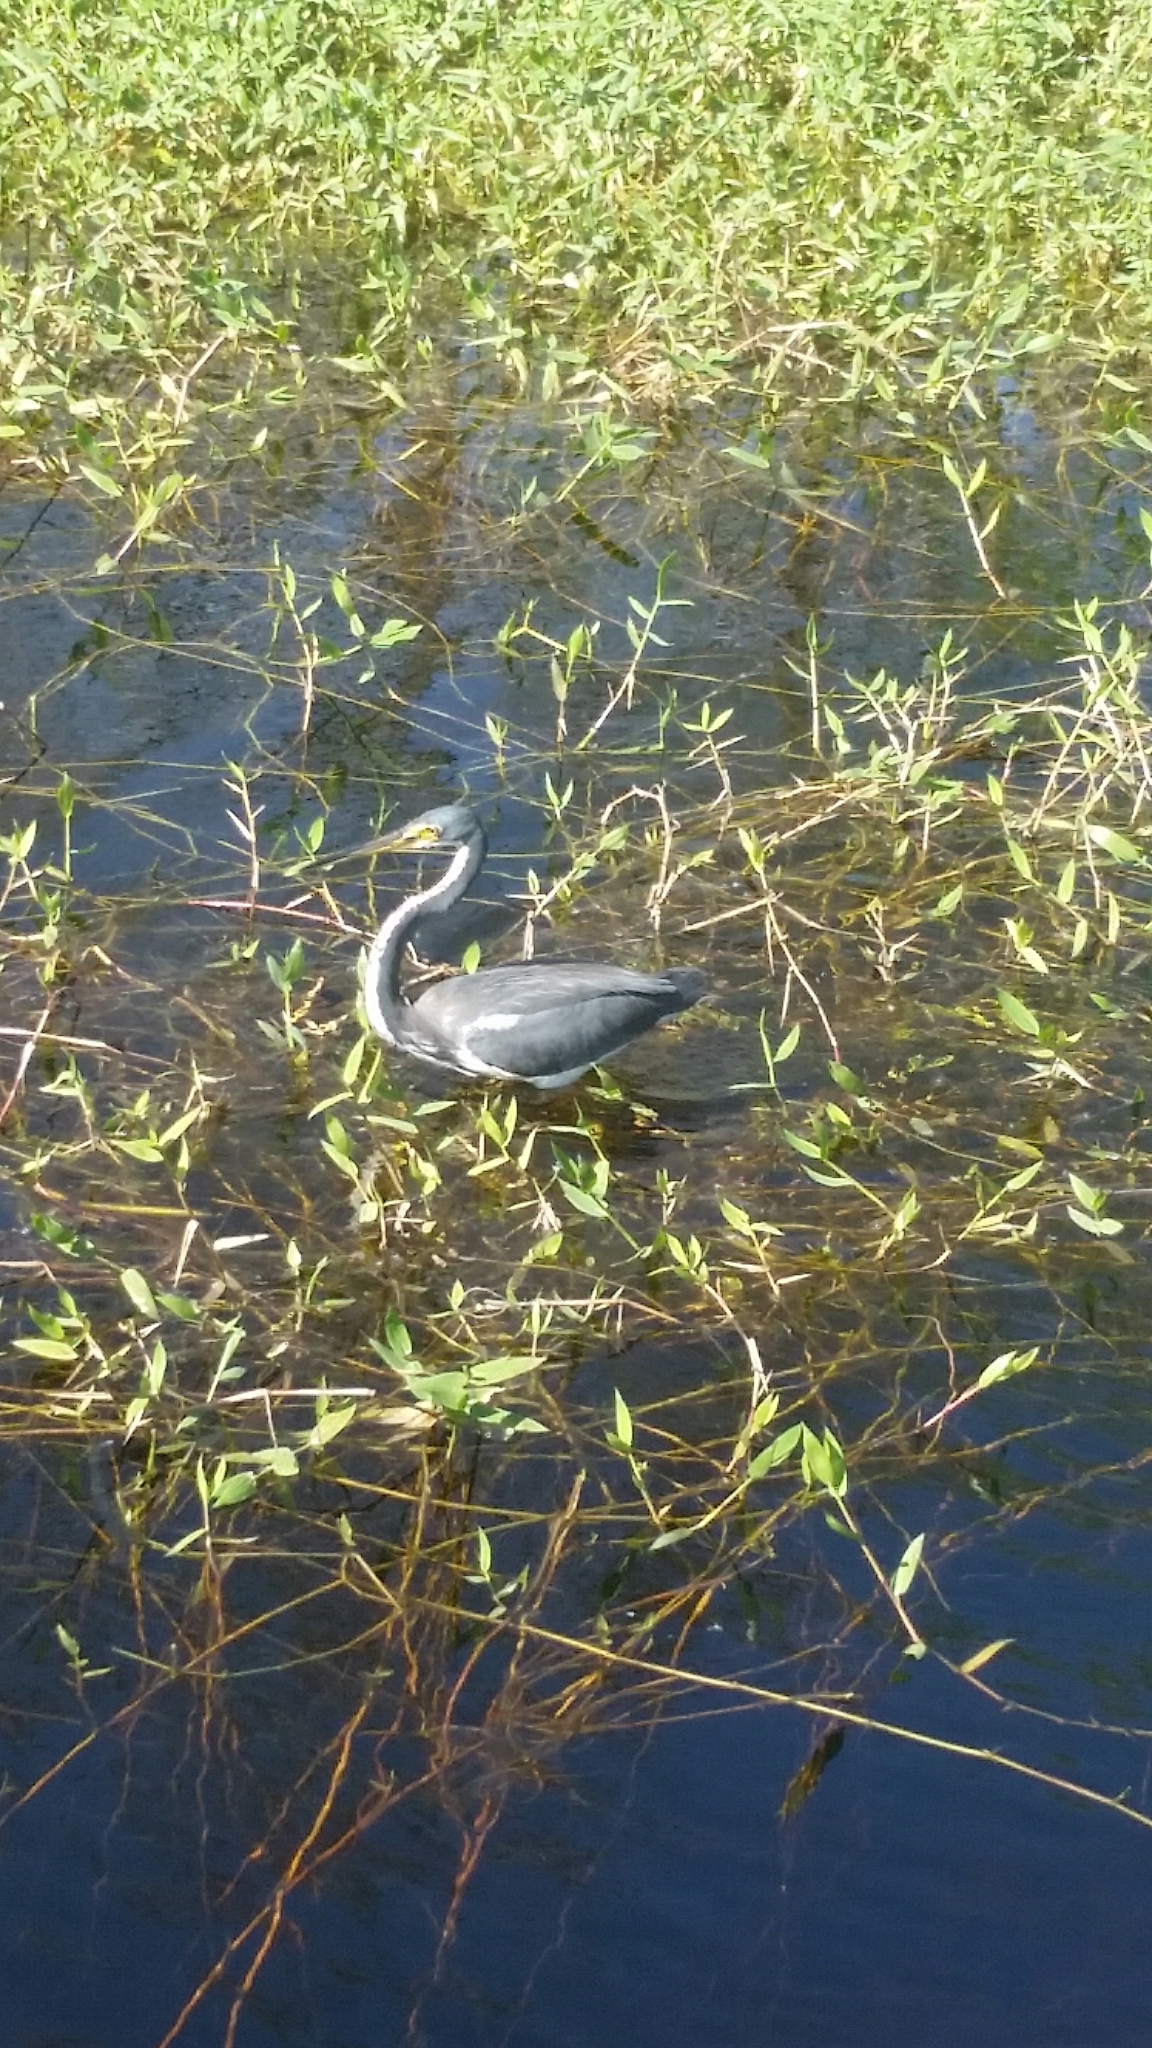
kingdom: Animalia
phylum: Chordata
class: Aves
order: Pelecaniformes
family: Ardeidae
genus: Egretta
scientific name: Egretta tricolor
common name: Tricolored heron
